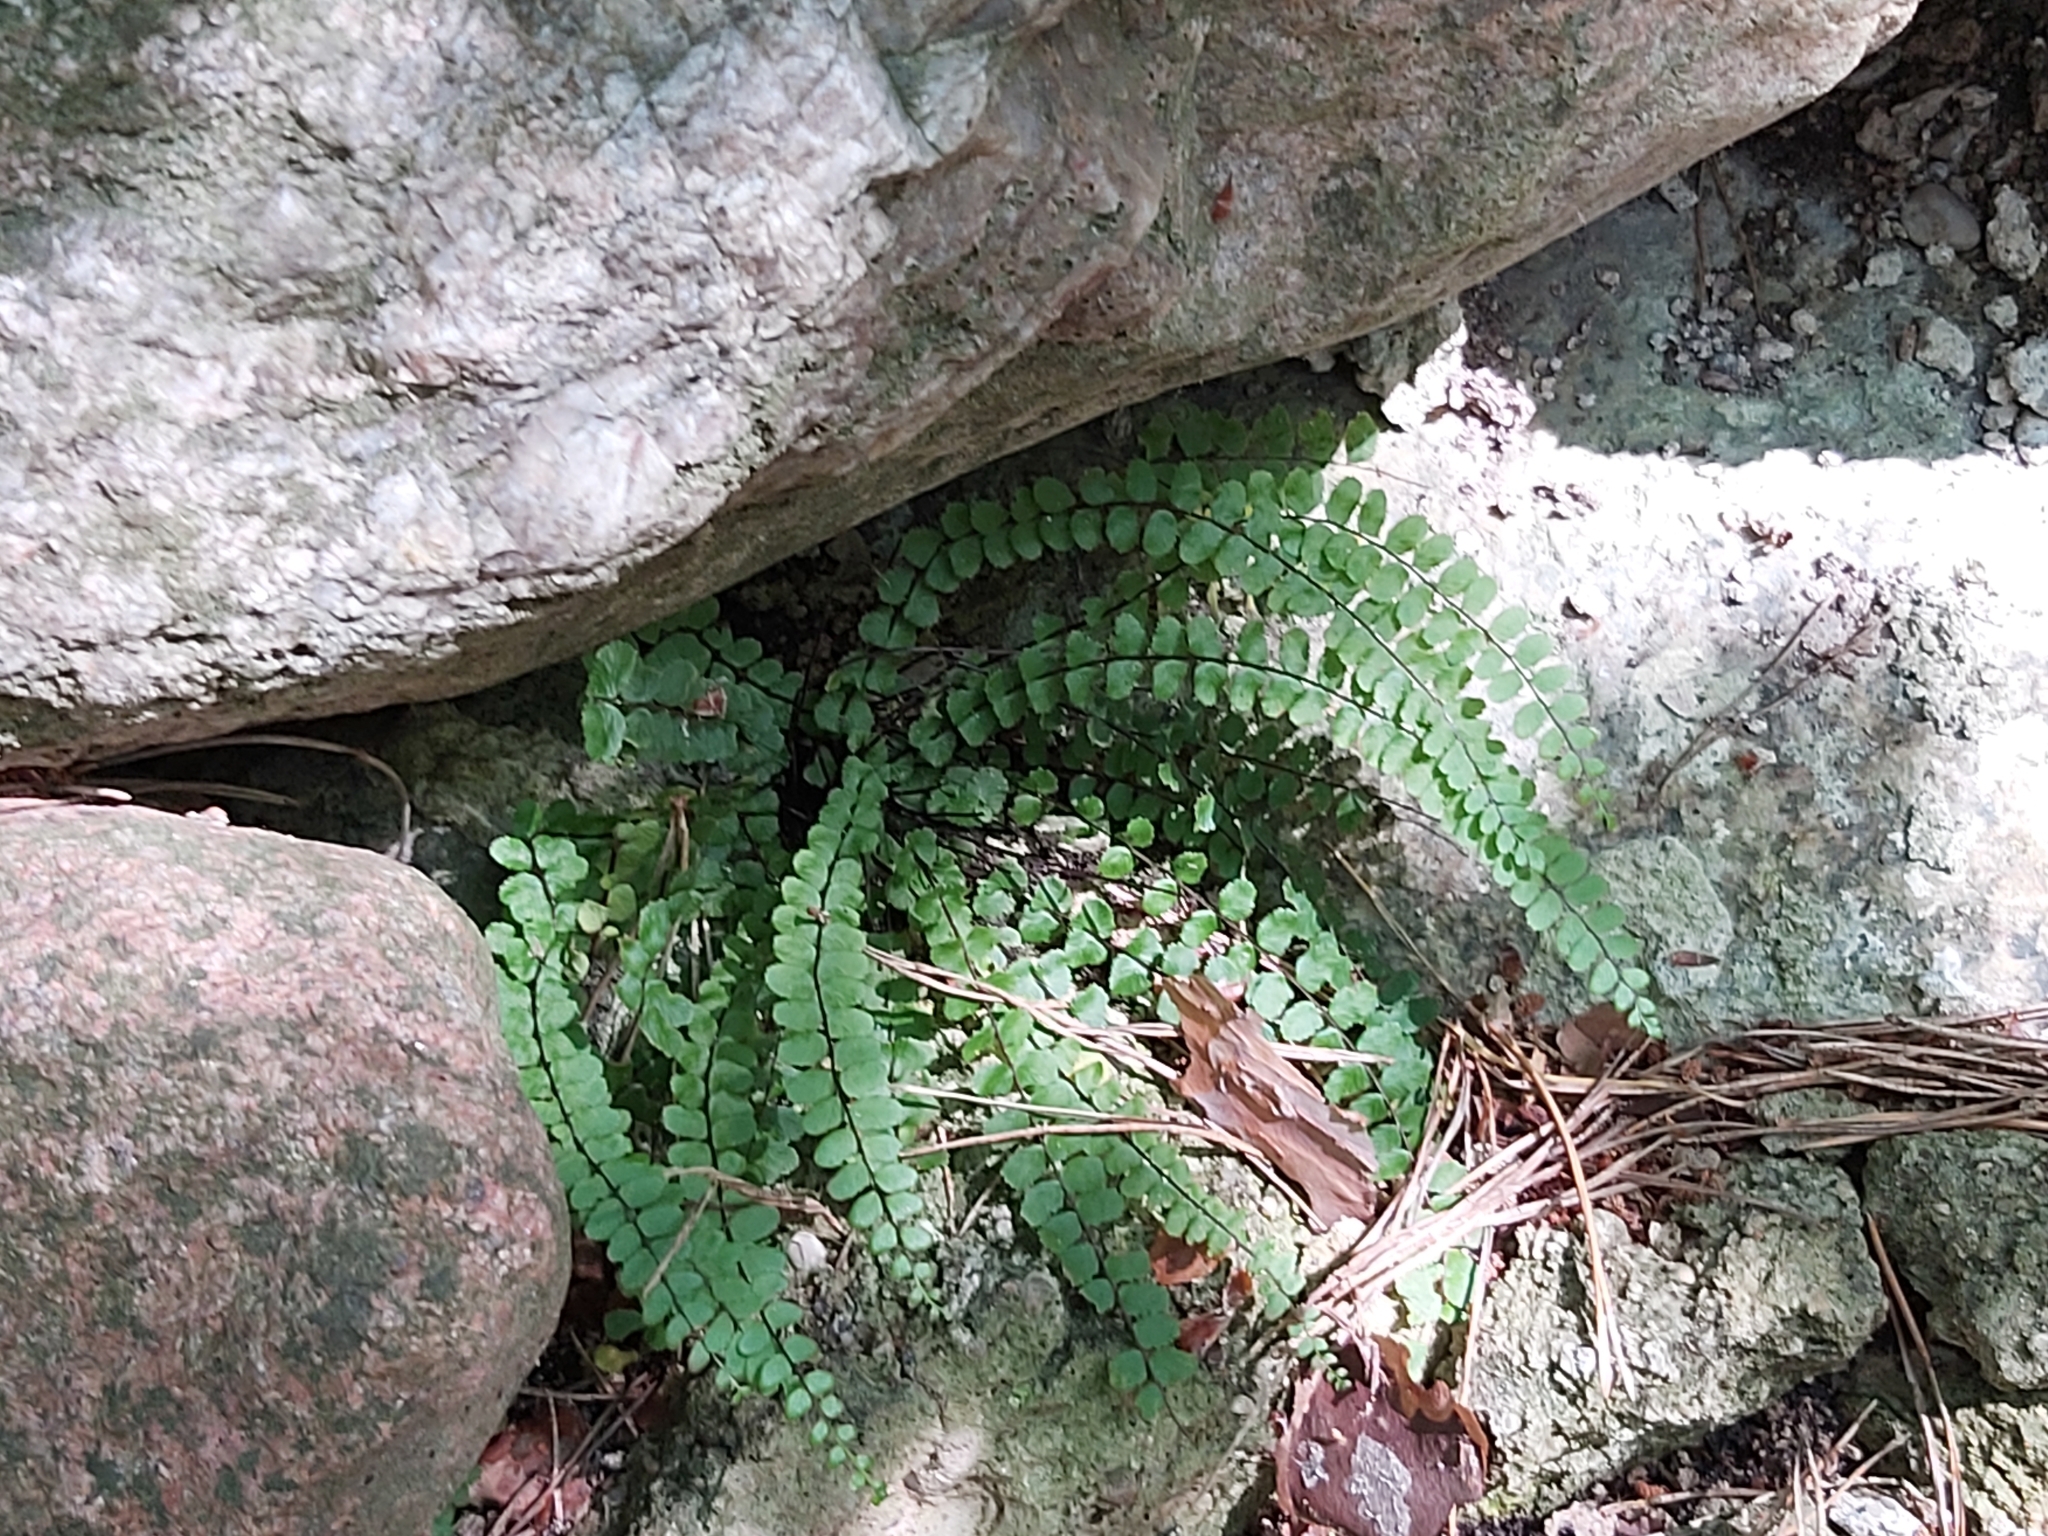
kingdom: Plantae
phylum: Tracheophyta
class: Polypodiopsida
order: Polypodiales
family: Aspleniaceae
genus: Asplenium
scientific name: Asplenium trichomanes
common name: Maidenhair spleenwort
